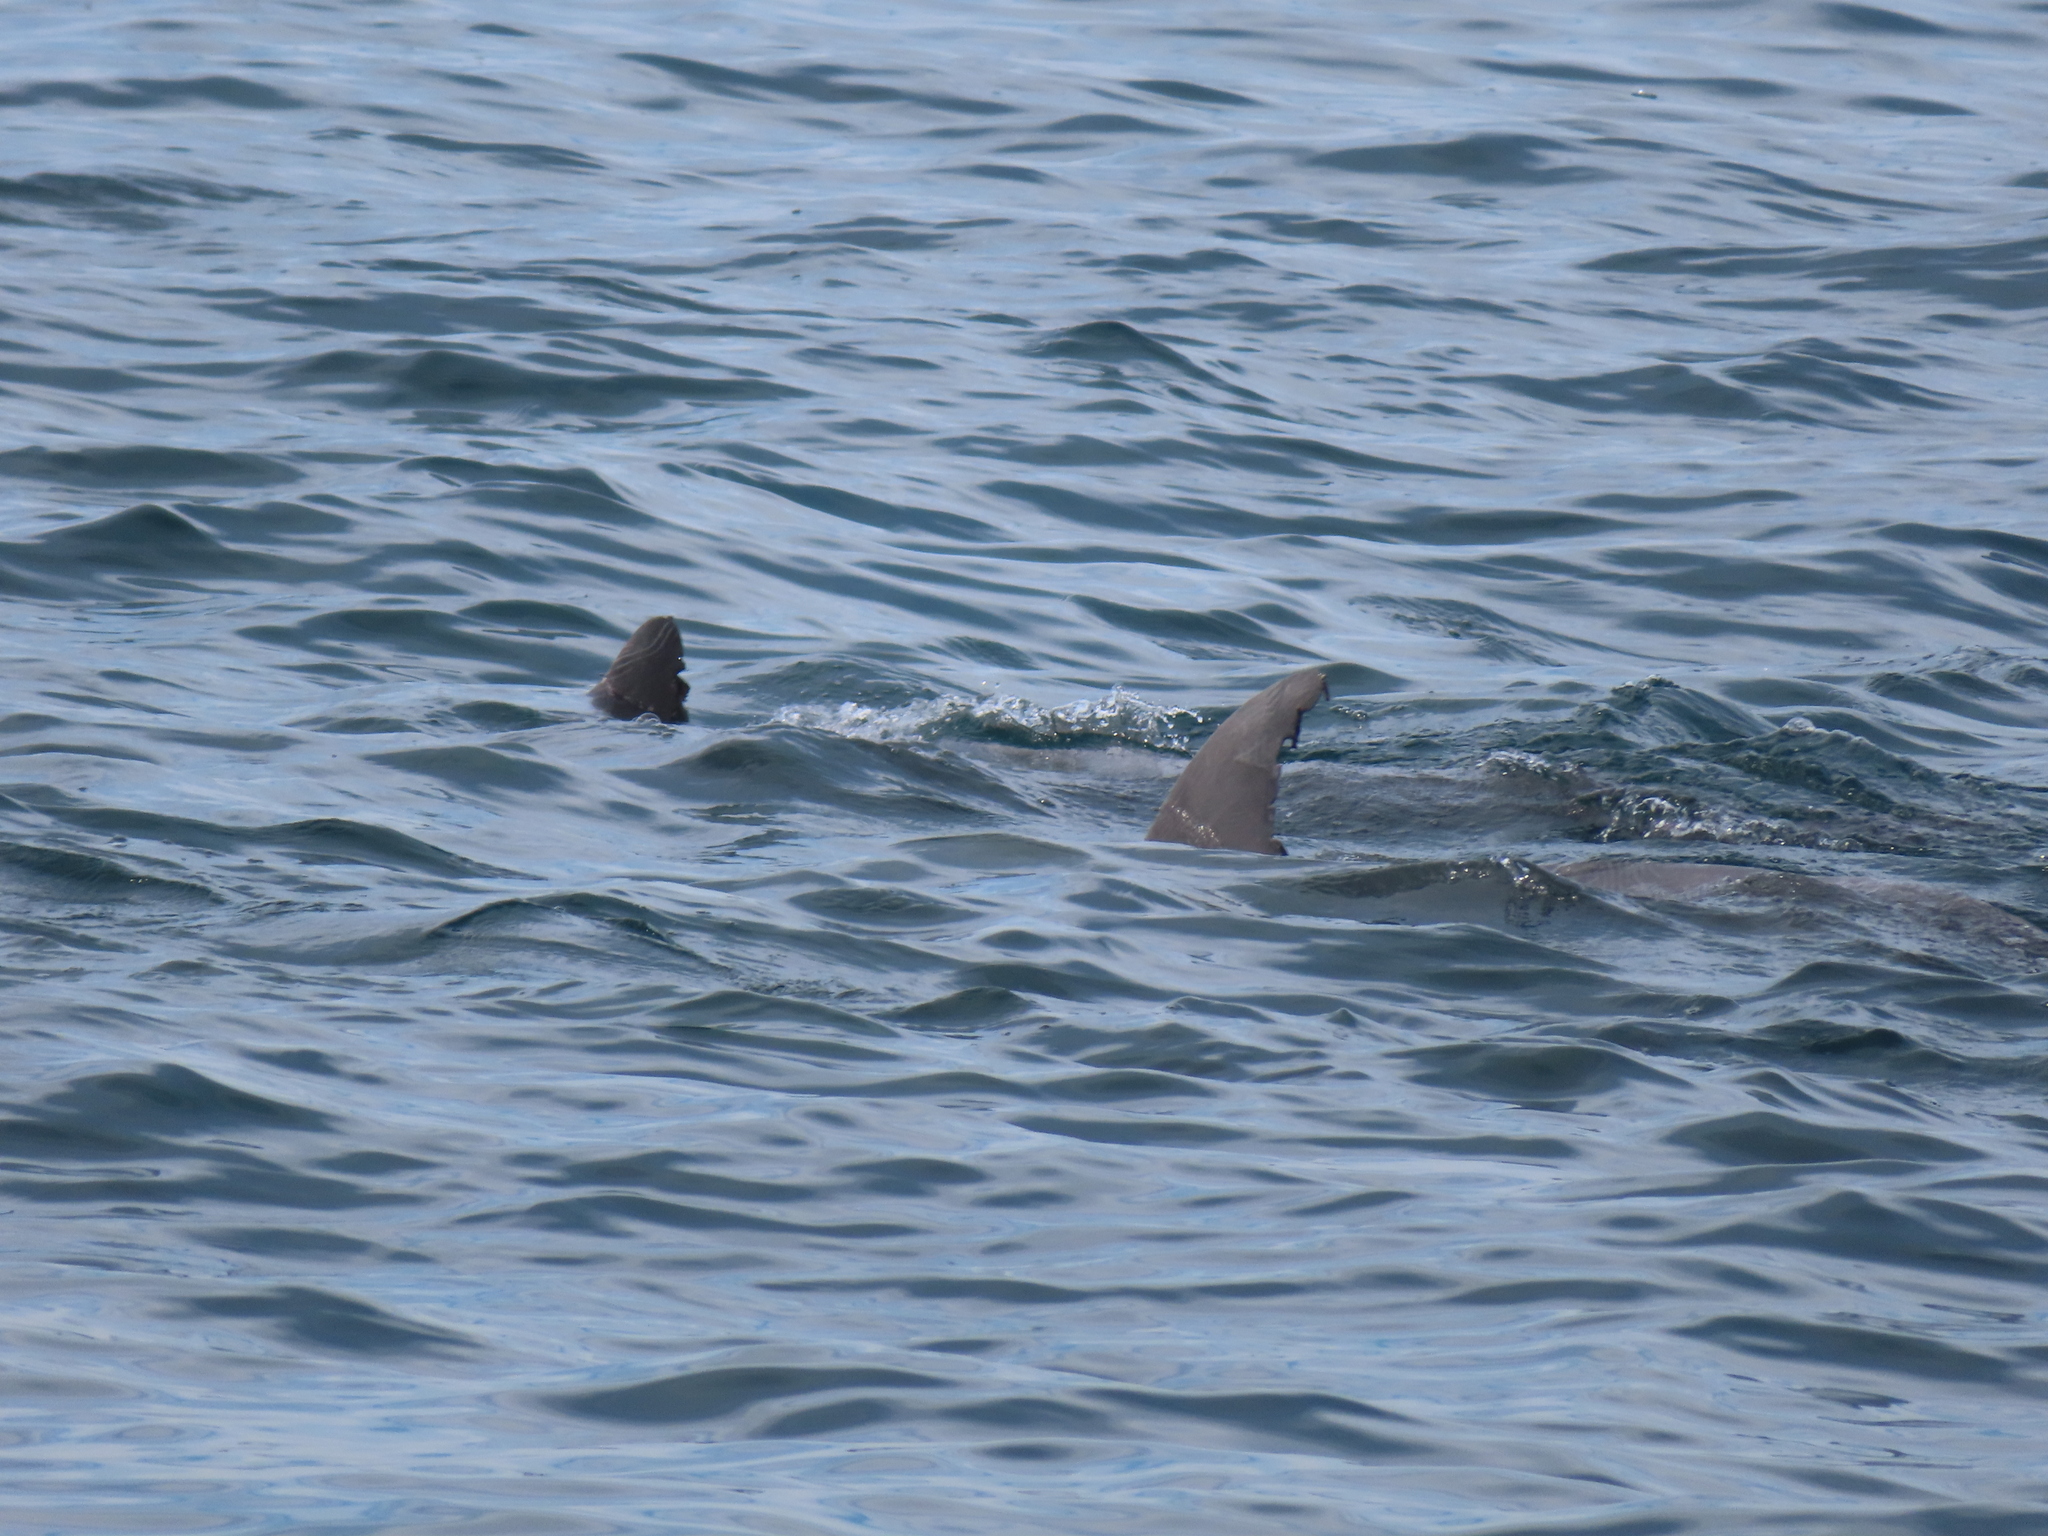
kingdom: Animalia
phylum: Chordata
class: Mammalia
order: Cetacea
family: Delphinidae
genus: Tursiops
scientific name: Tursiops truncatus
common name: Bottlenose dolphin
